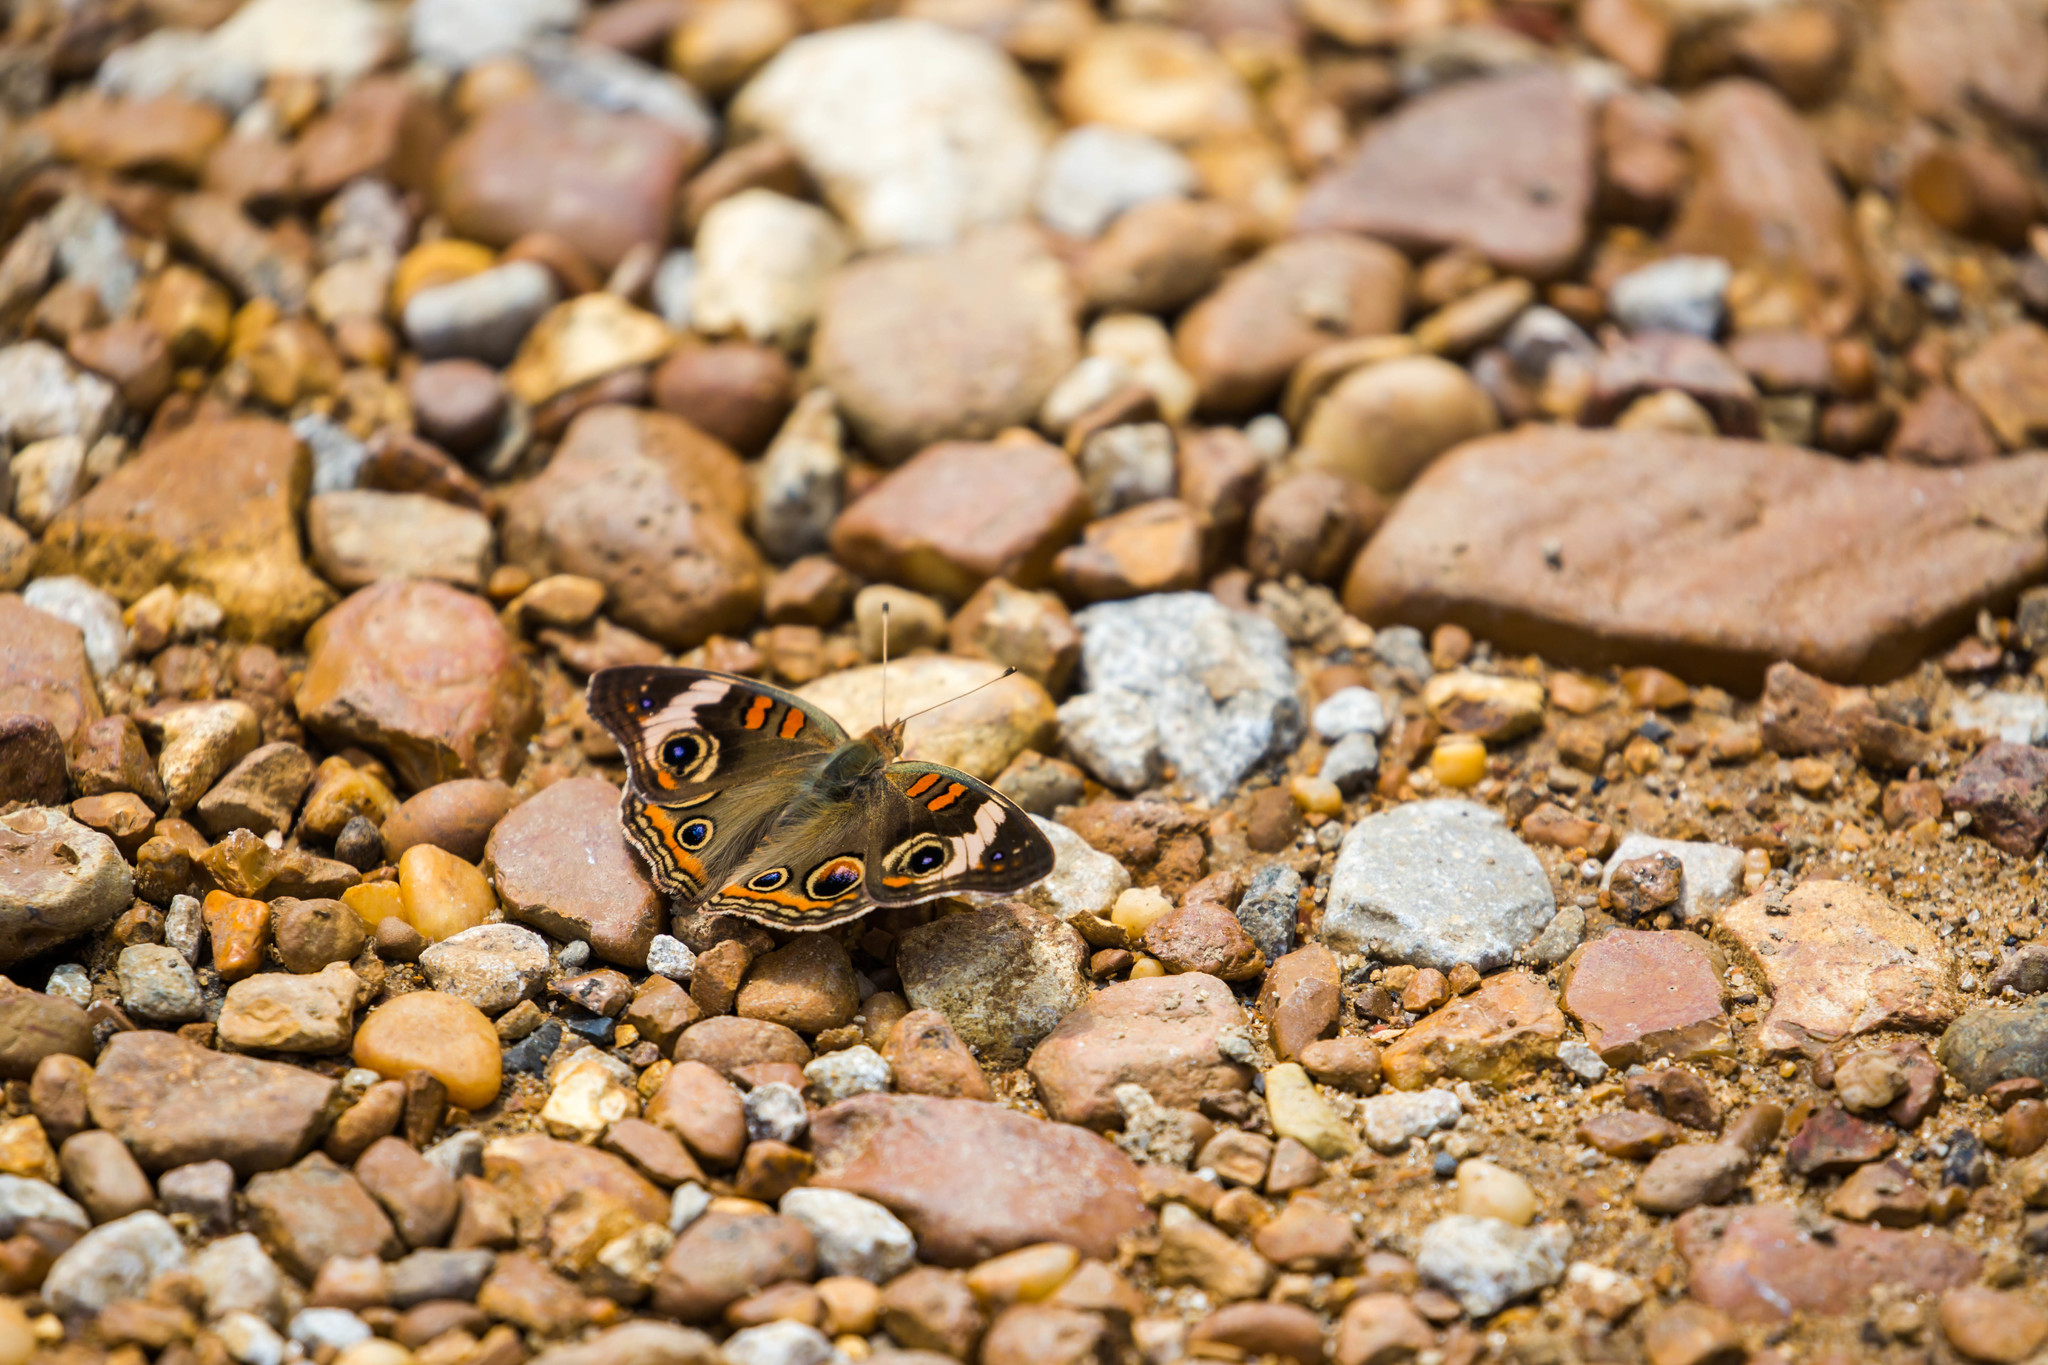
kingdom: Animalia
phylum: Arthropoda
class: Insecta
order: Lepidoptera
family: Nymphalidae
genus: Junonia
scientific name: Junonia coenia
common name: Common buckeye
